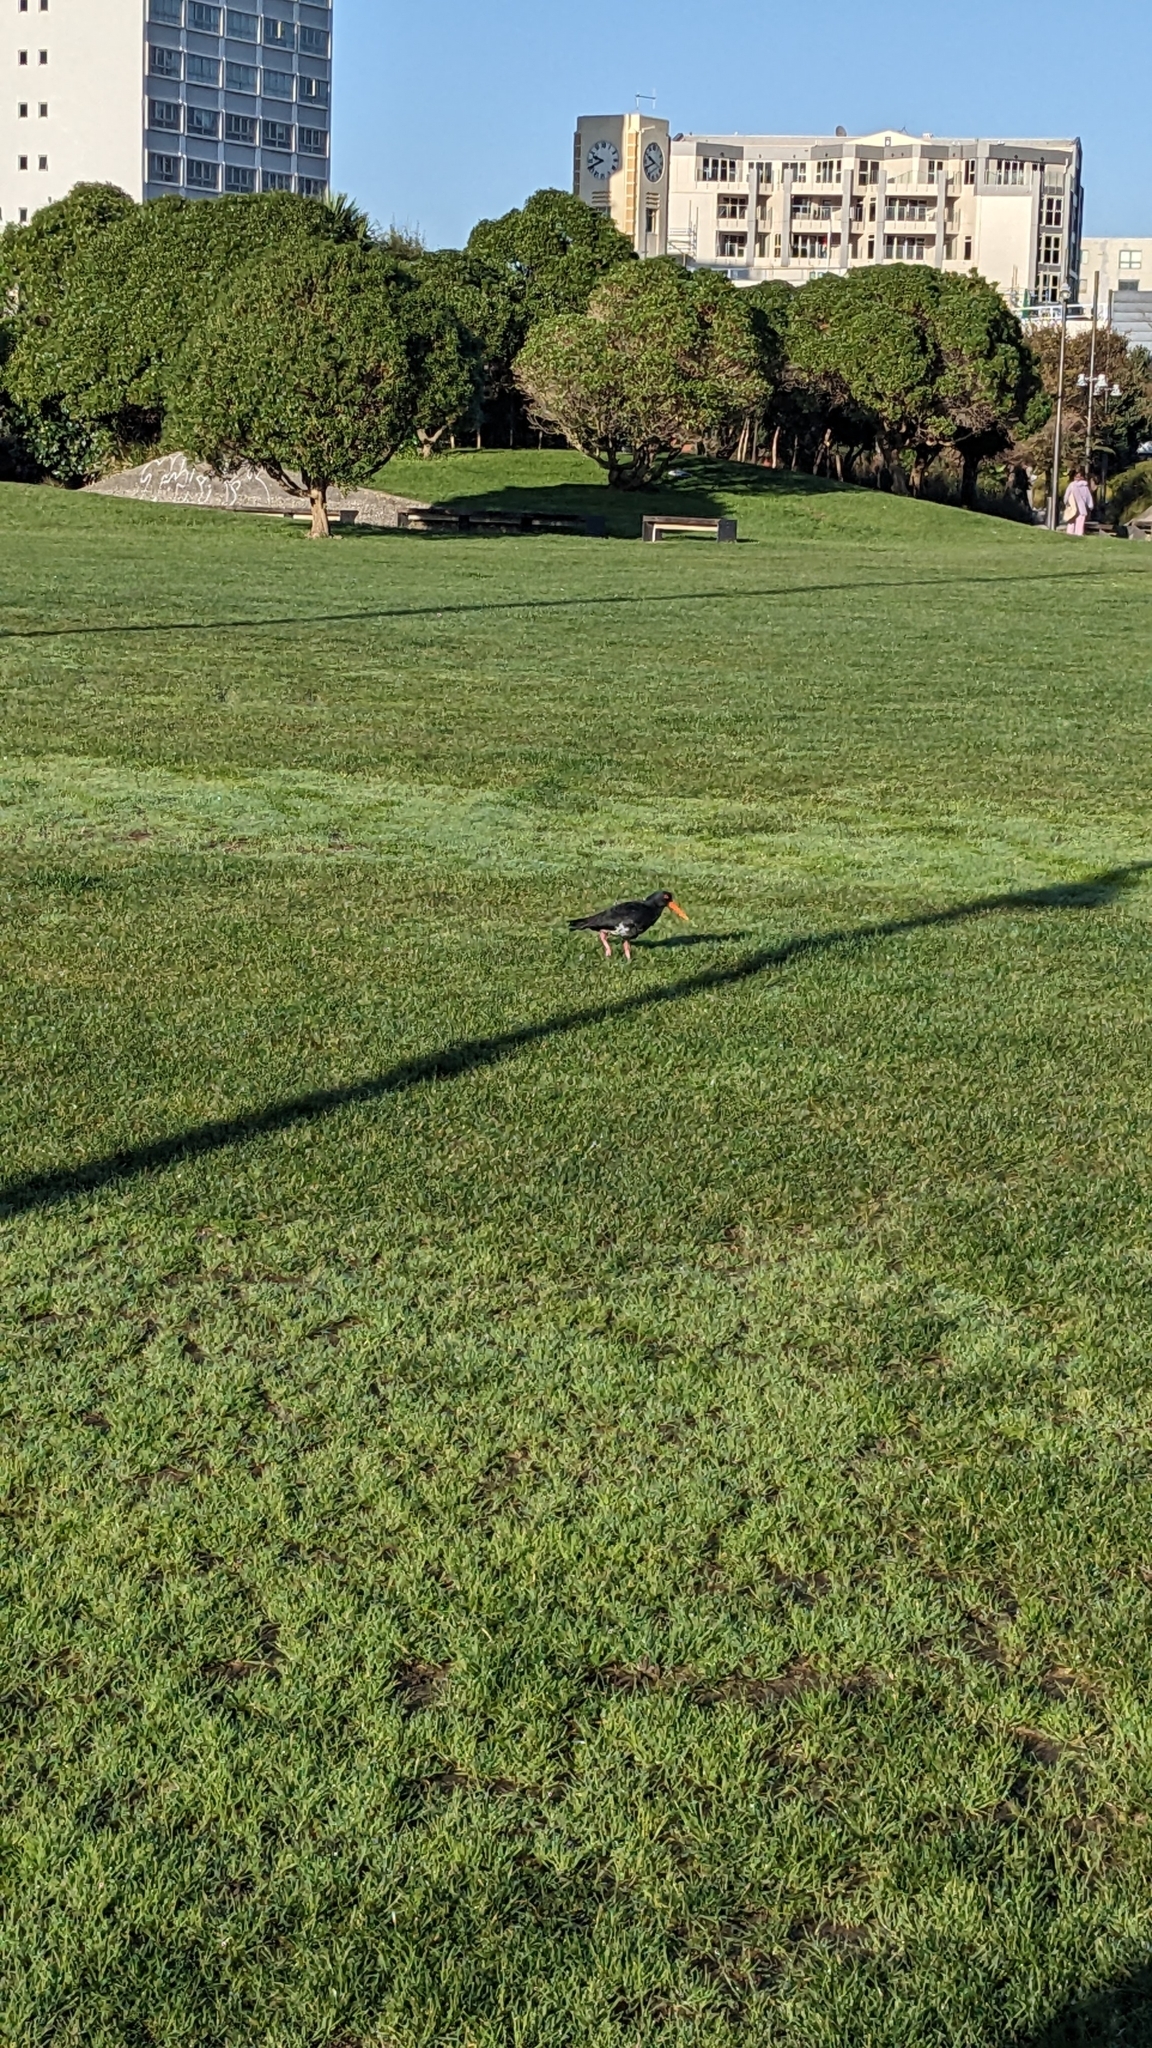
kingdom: Animalia
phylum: Chordata
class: Aves
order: Charadriiformes
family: Haematopodidae
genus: Haematopus
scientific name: Haematopus unicolor
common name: Variable oystercatcher
